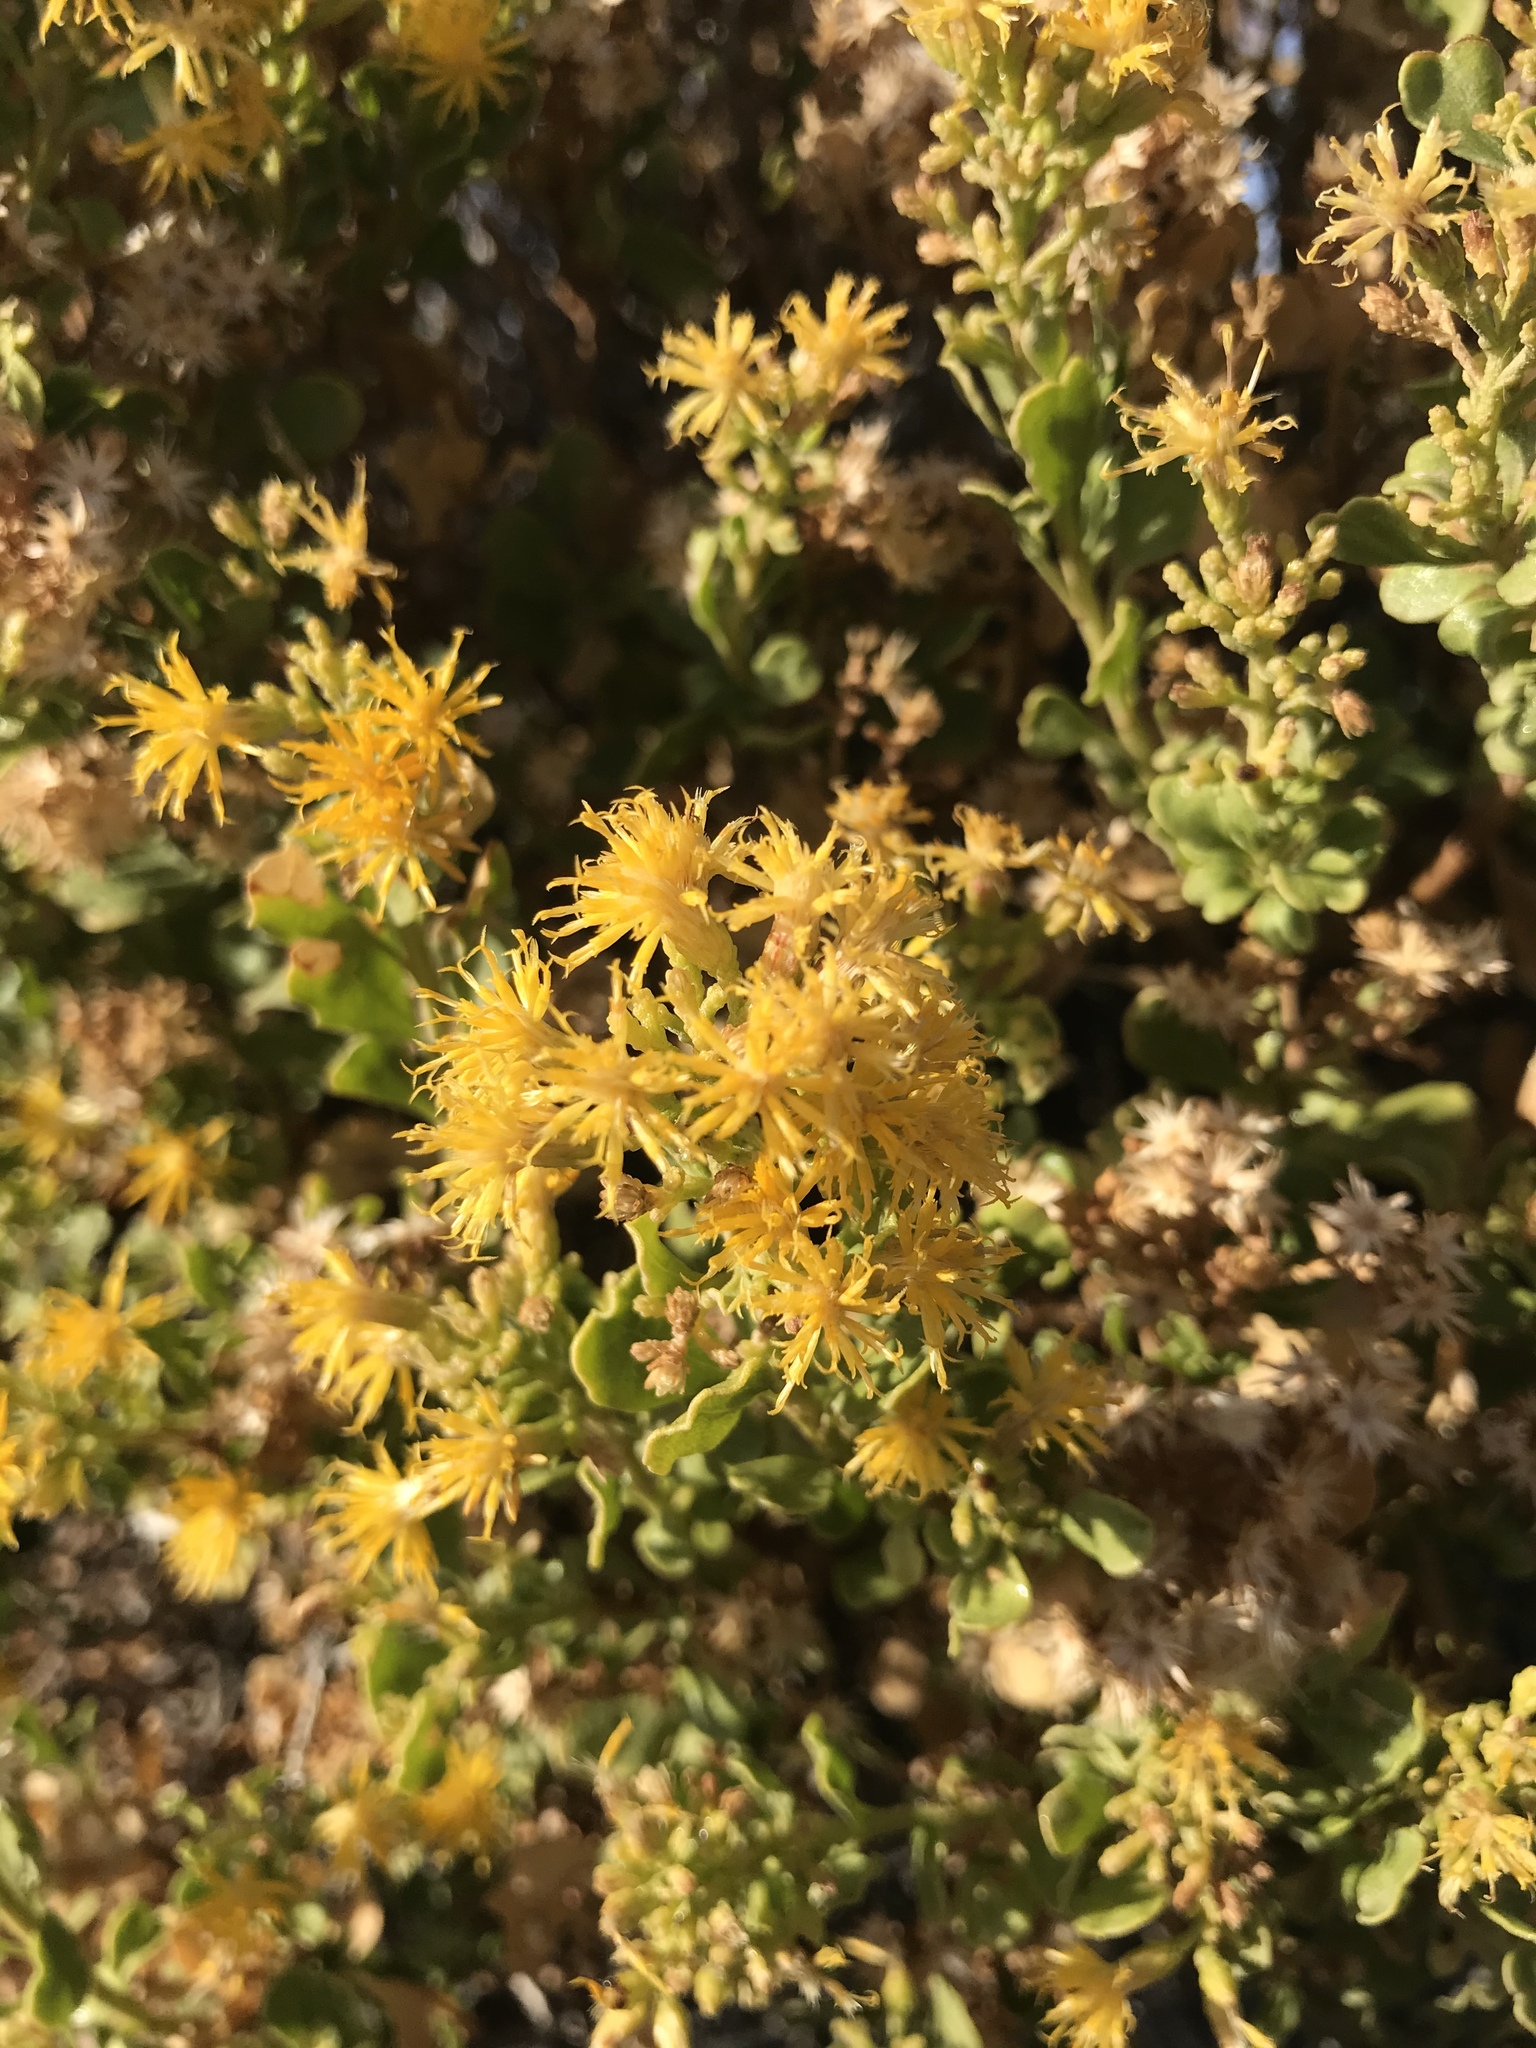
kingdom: Plantae
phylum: Tracheophyta
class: Magnoliopsida
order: Asterales
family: Asteraceae
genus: Ericameria
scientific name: Ericameria cuneata
